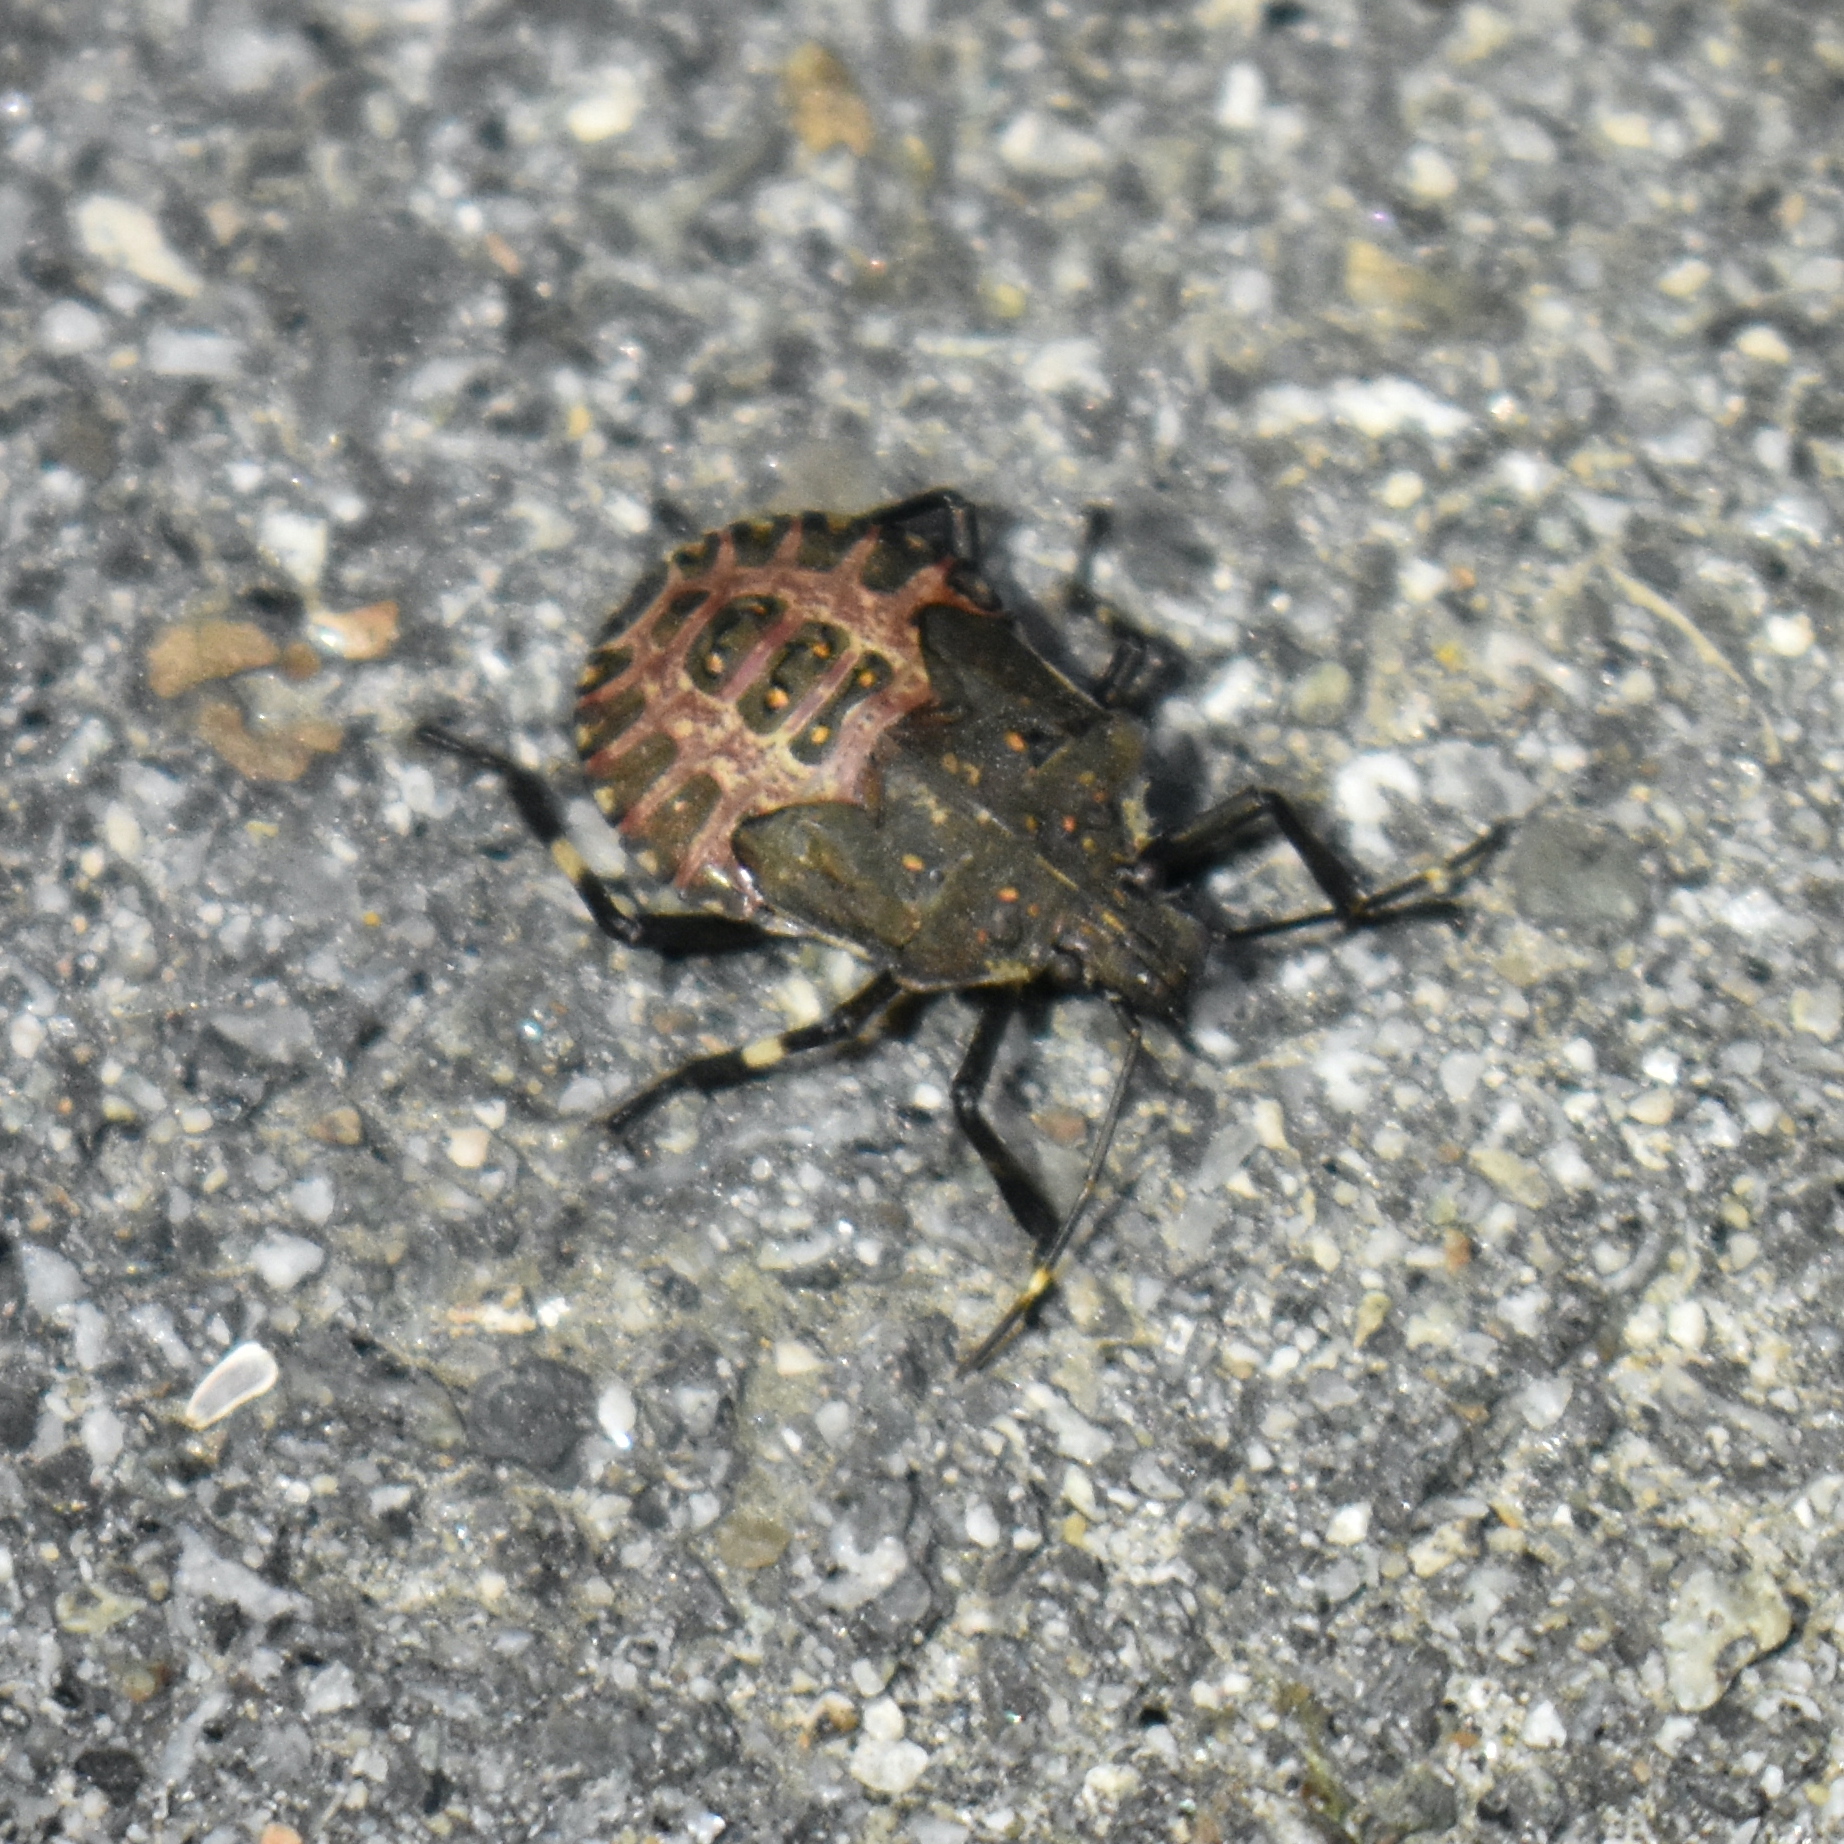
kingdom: Animalia
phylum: Arthropoda
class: Insecta
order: Hemiptera
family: Pentatomidae
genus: Halyomorpha
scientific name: Halyomorpha halys
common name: Brown marmorated stink bug
